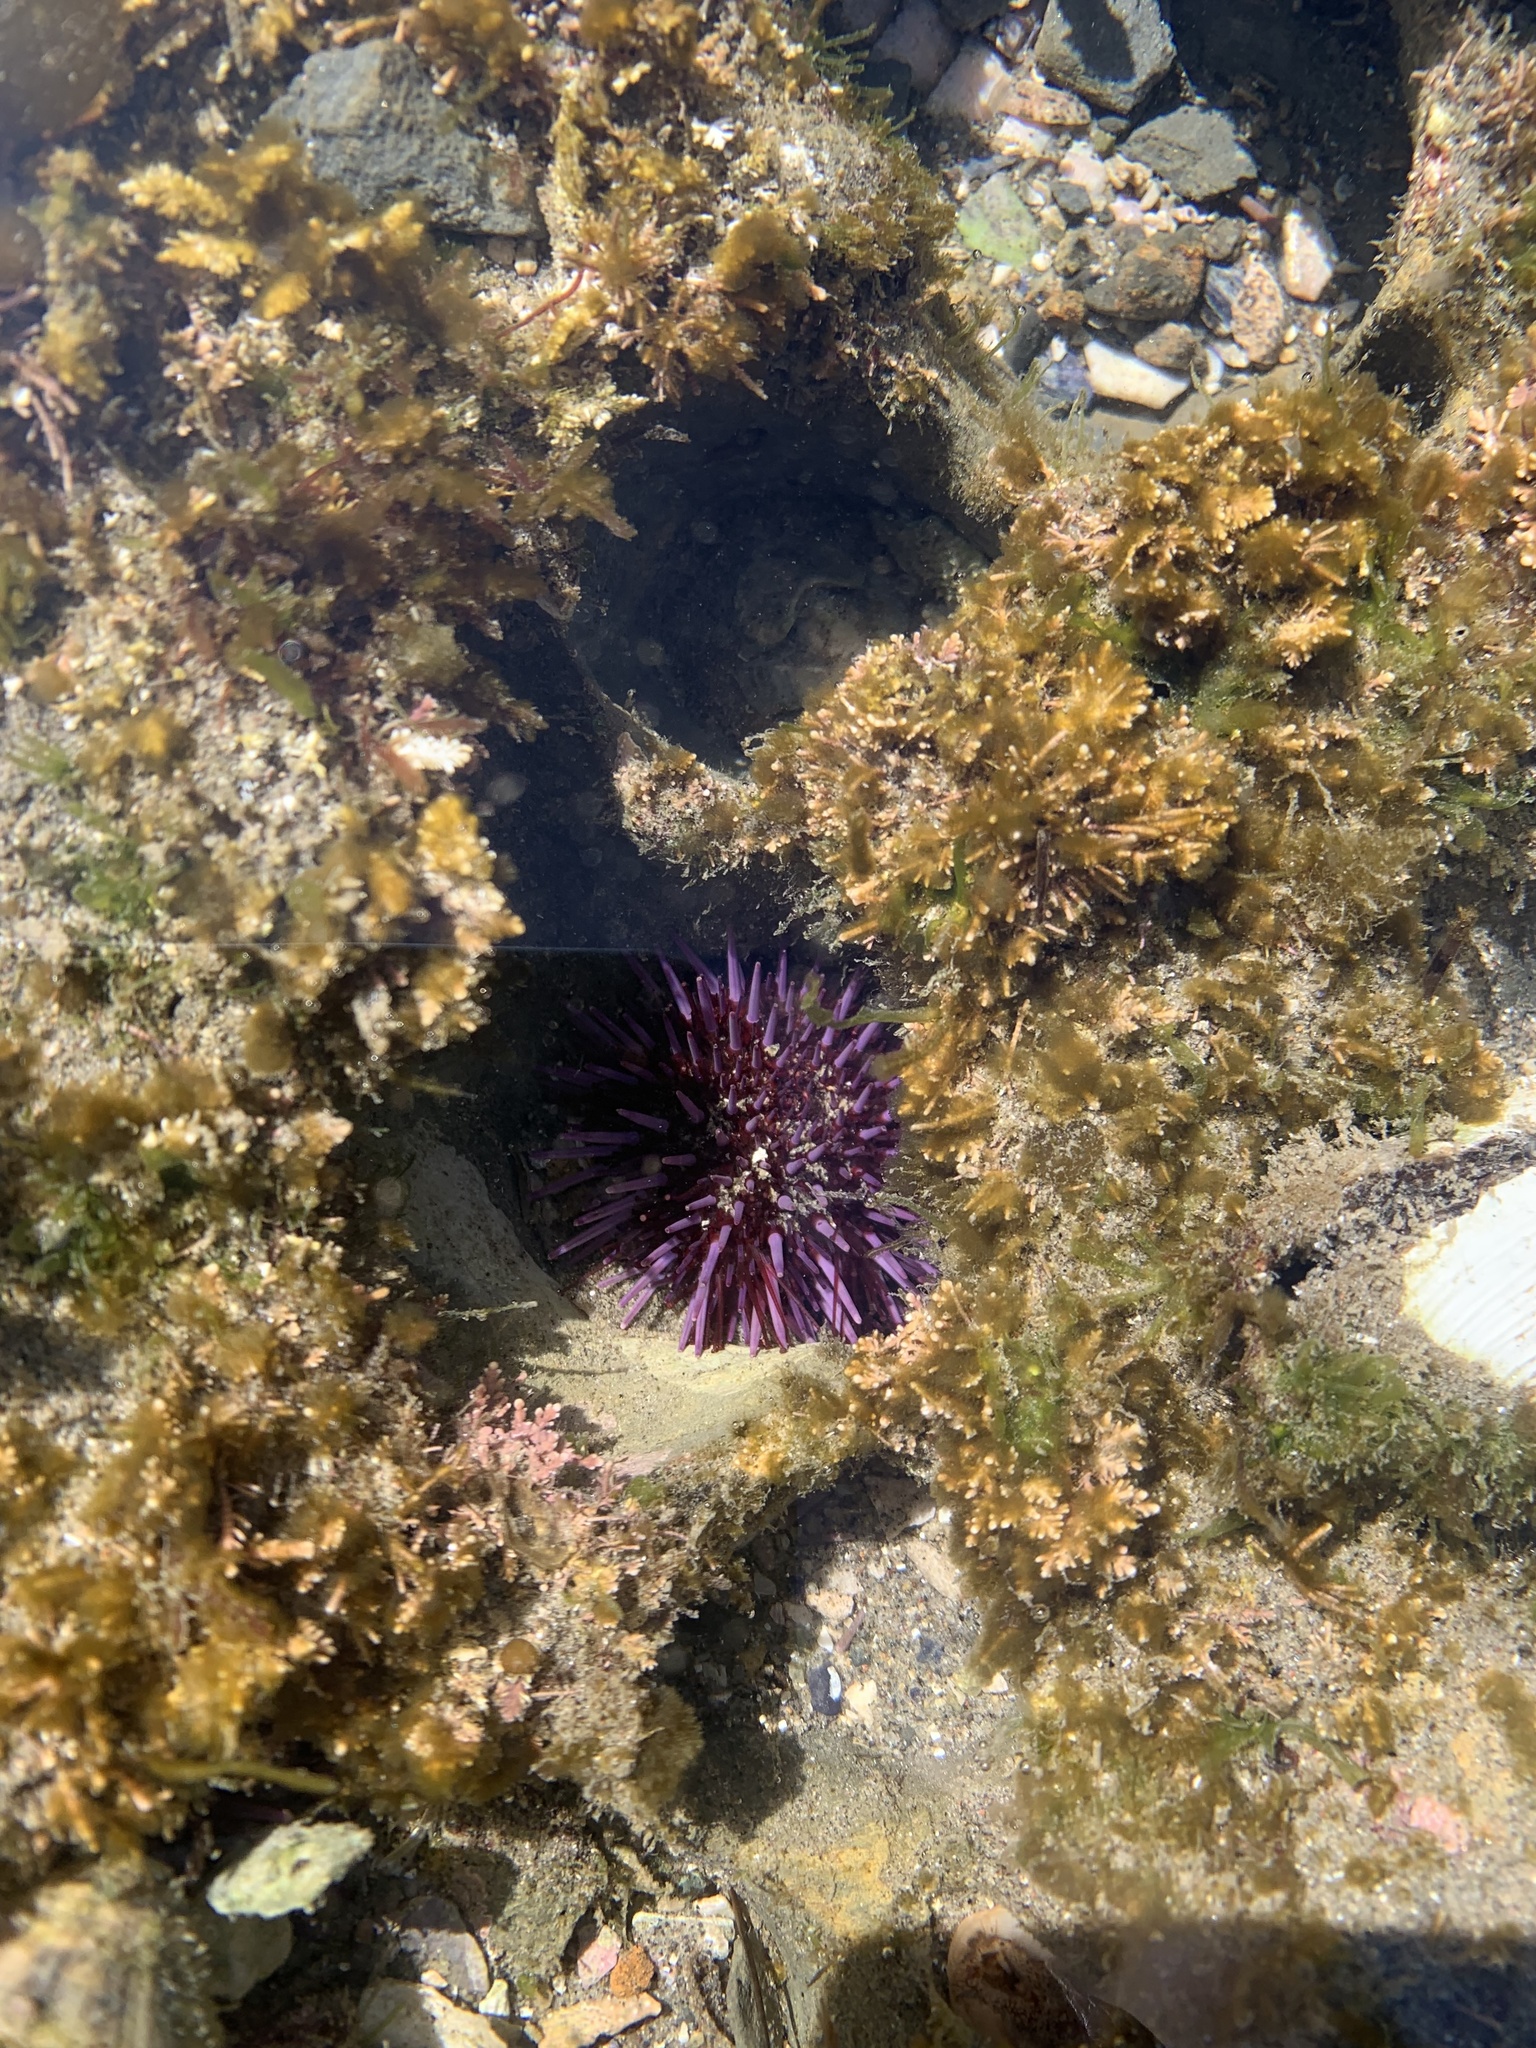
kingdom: Animalia
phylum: Echinodermata
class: Echinoidea
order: Camarodonta
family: Strongylocentrotidae
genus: Strongylocentrotus
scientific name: Strongylocentrotus purpuratus
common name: Purple sea urchin
